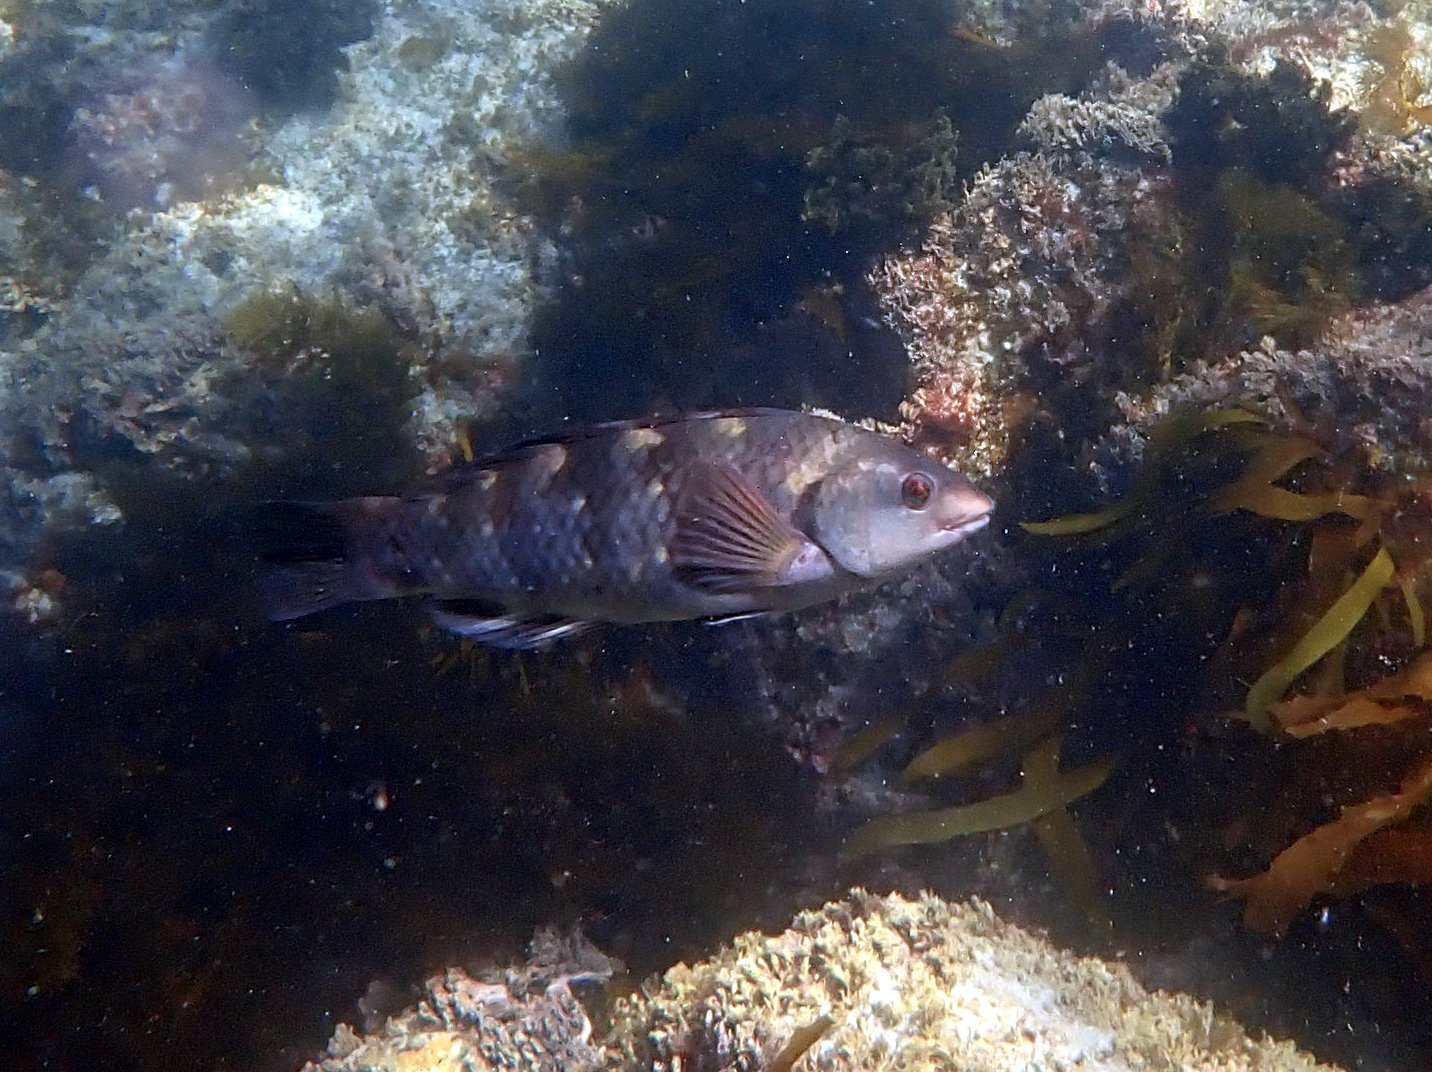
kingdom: Animalia
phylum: Chordata
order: Perciformes
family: Labridae
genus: Notolabrus
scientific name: Notolabrus fucicola
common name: Banded parrotfish
